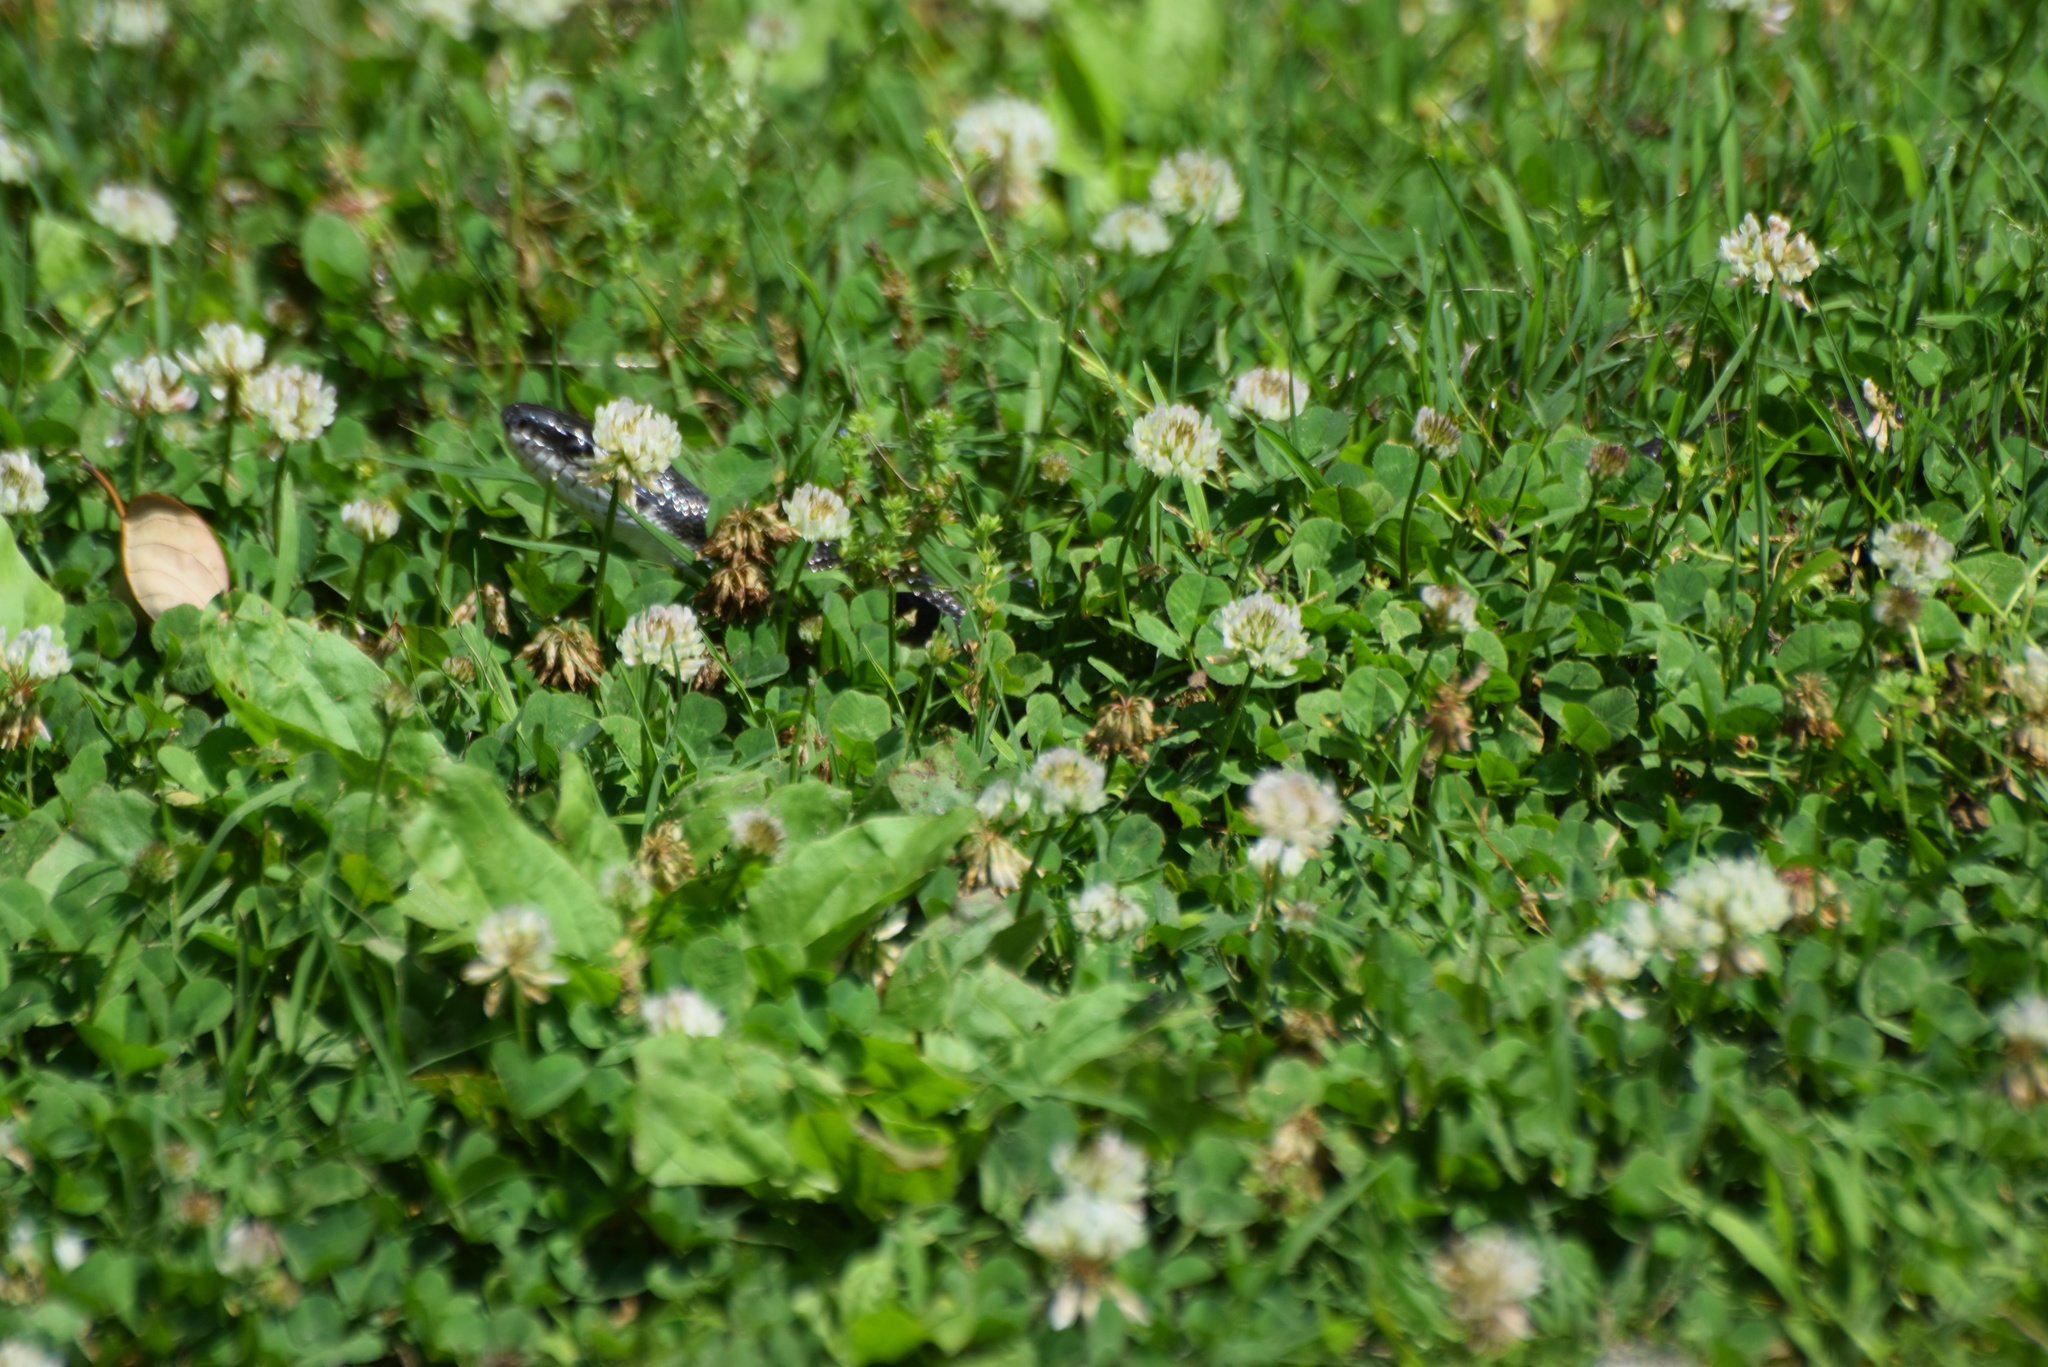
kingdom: Animalia
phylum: Chordata
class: Squamata
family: Colubridae
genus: Pantherophis
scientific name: Pantherophis
